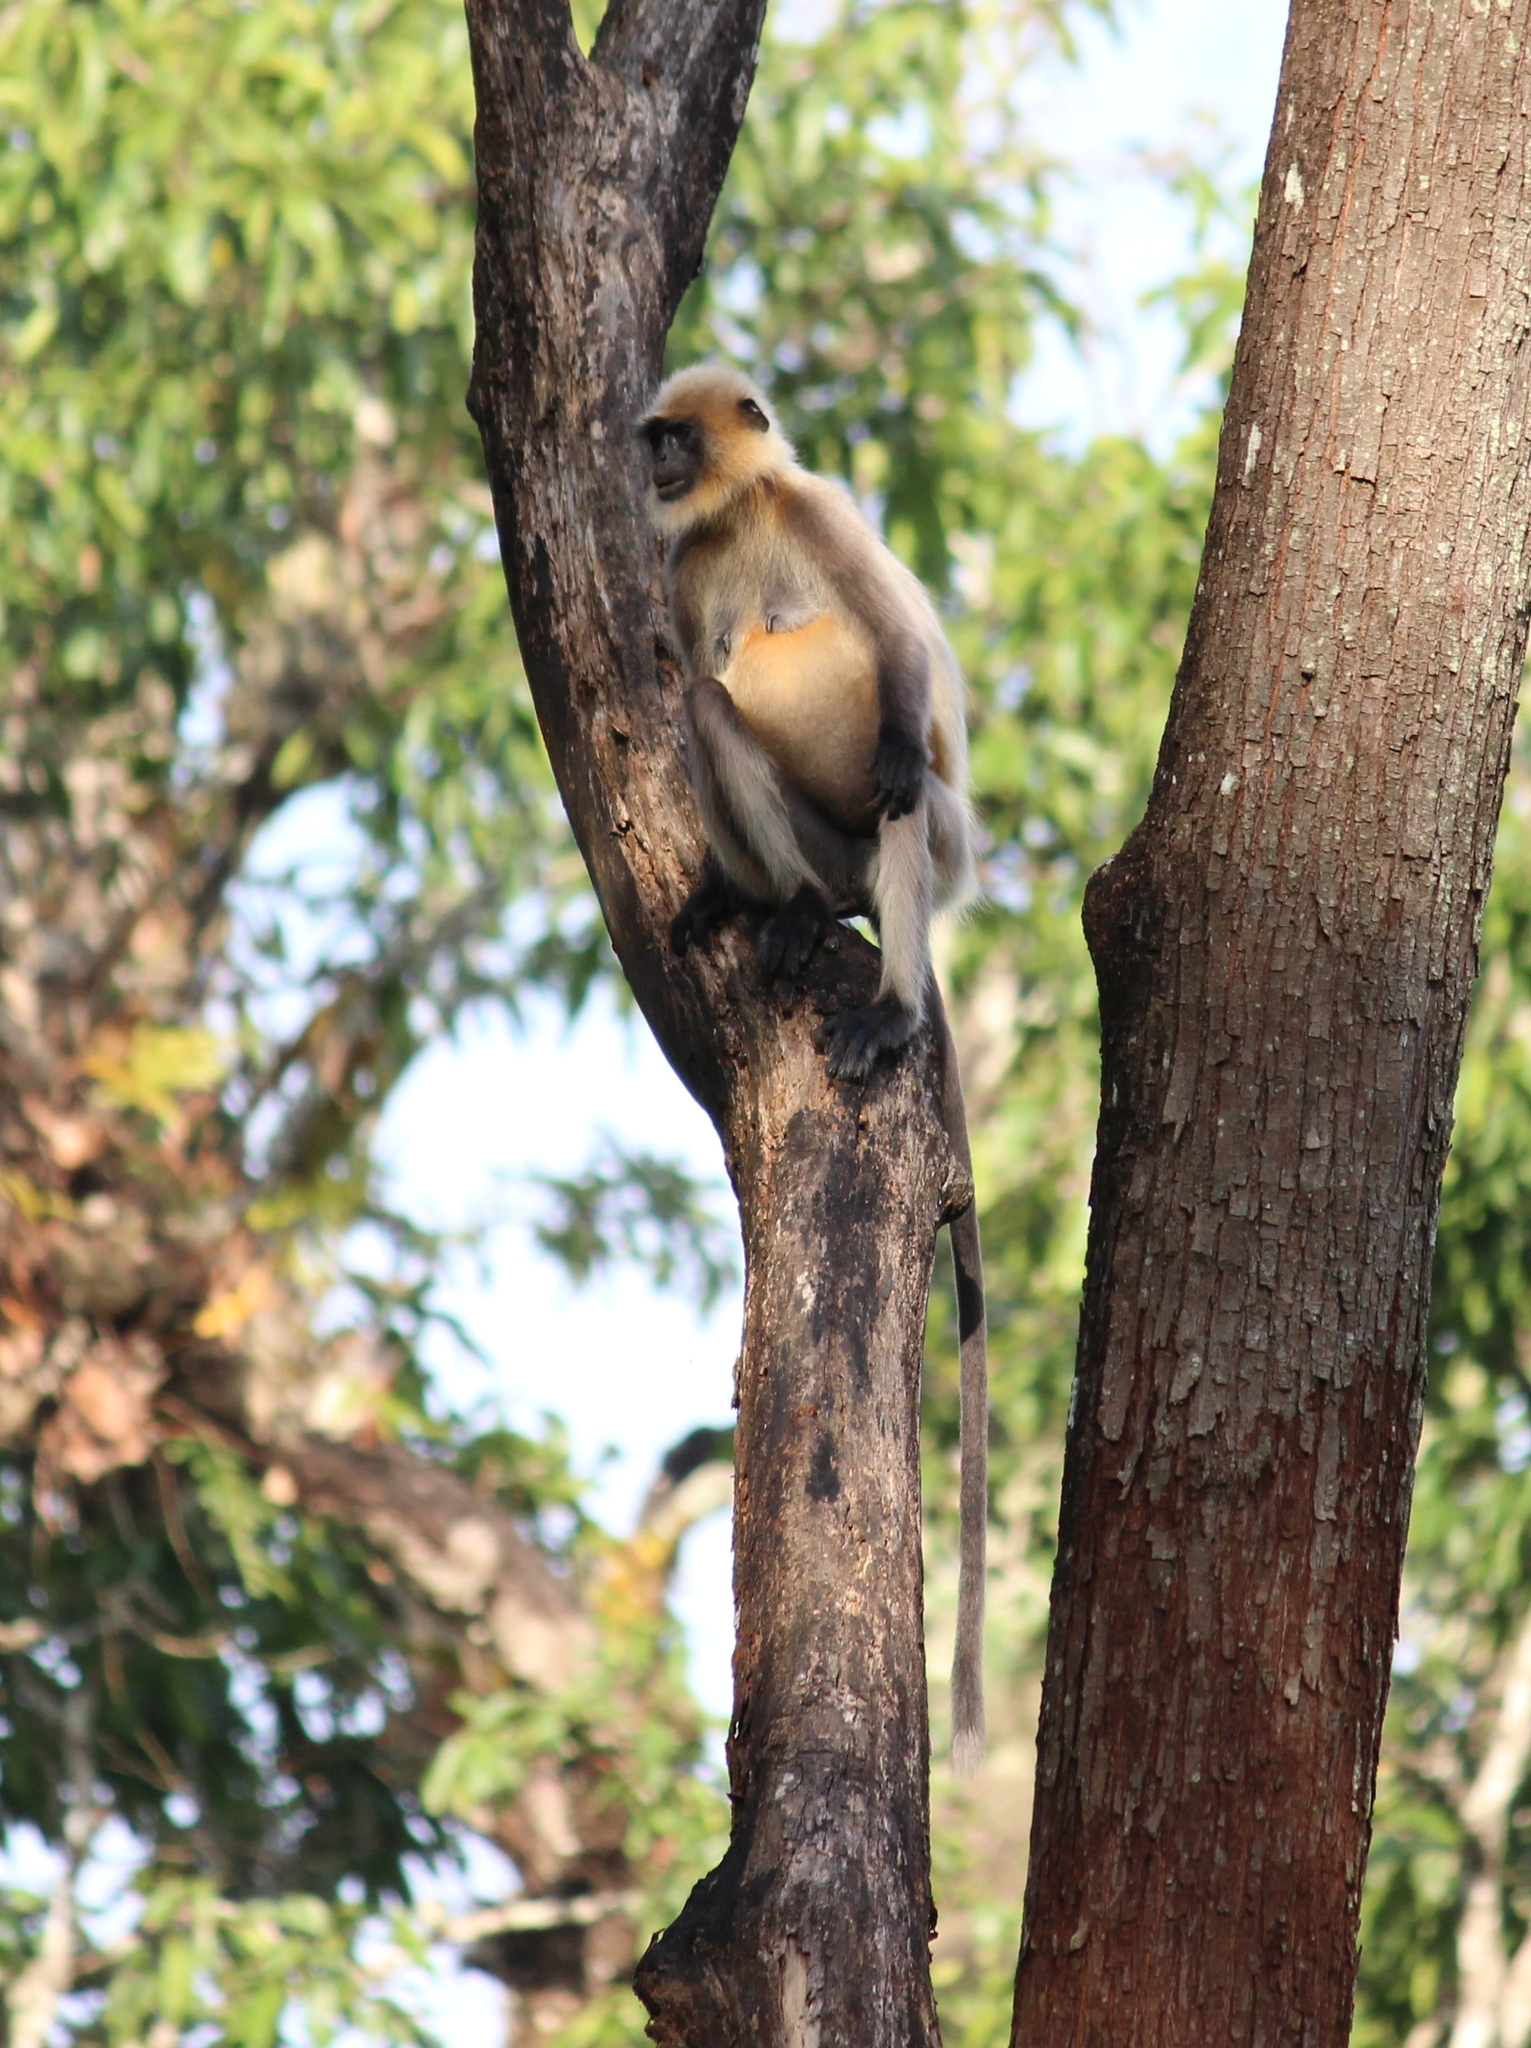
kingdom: Animalia
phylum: Chordata
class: Mammalia
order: Primates
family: Cercopithecidae
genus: Semnopithecus
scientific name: Semnopithecus hypoleucos
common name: Black-footed gray langur
